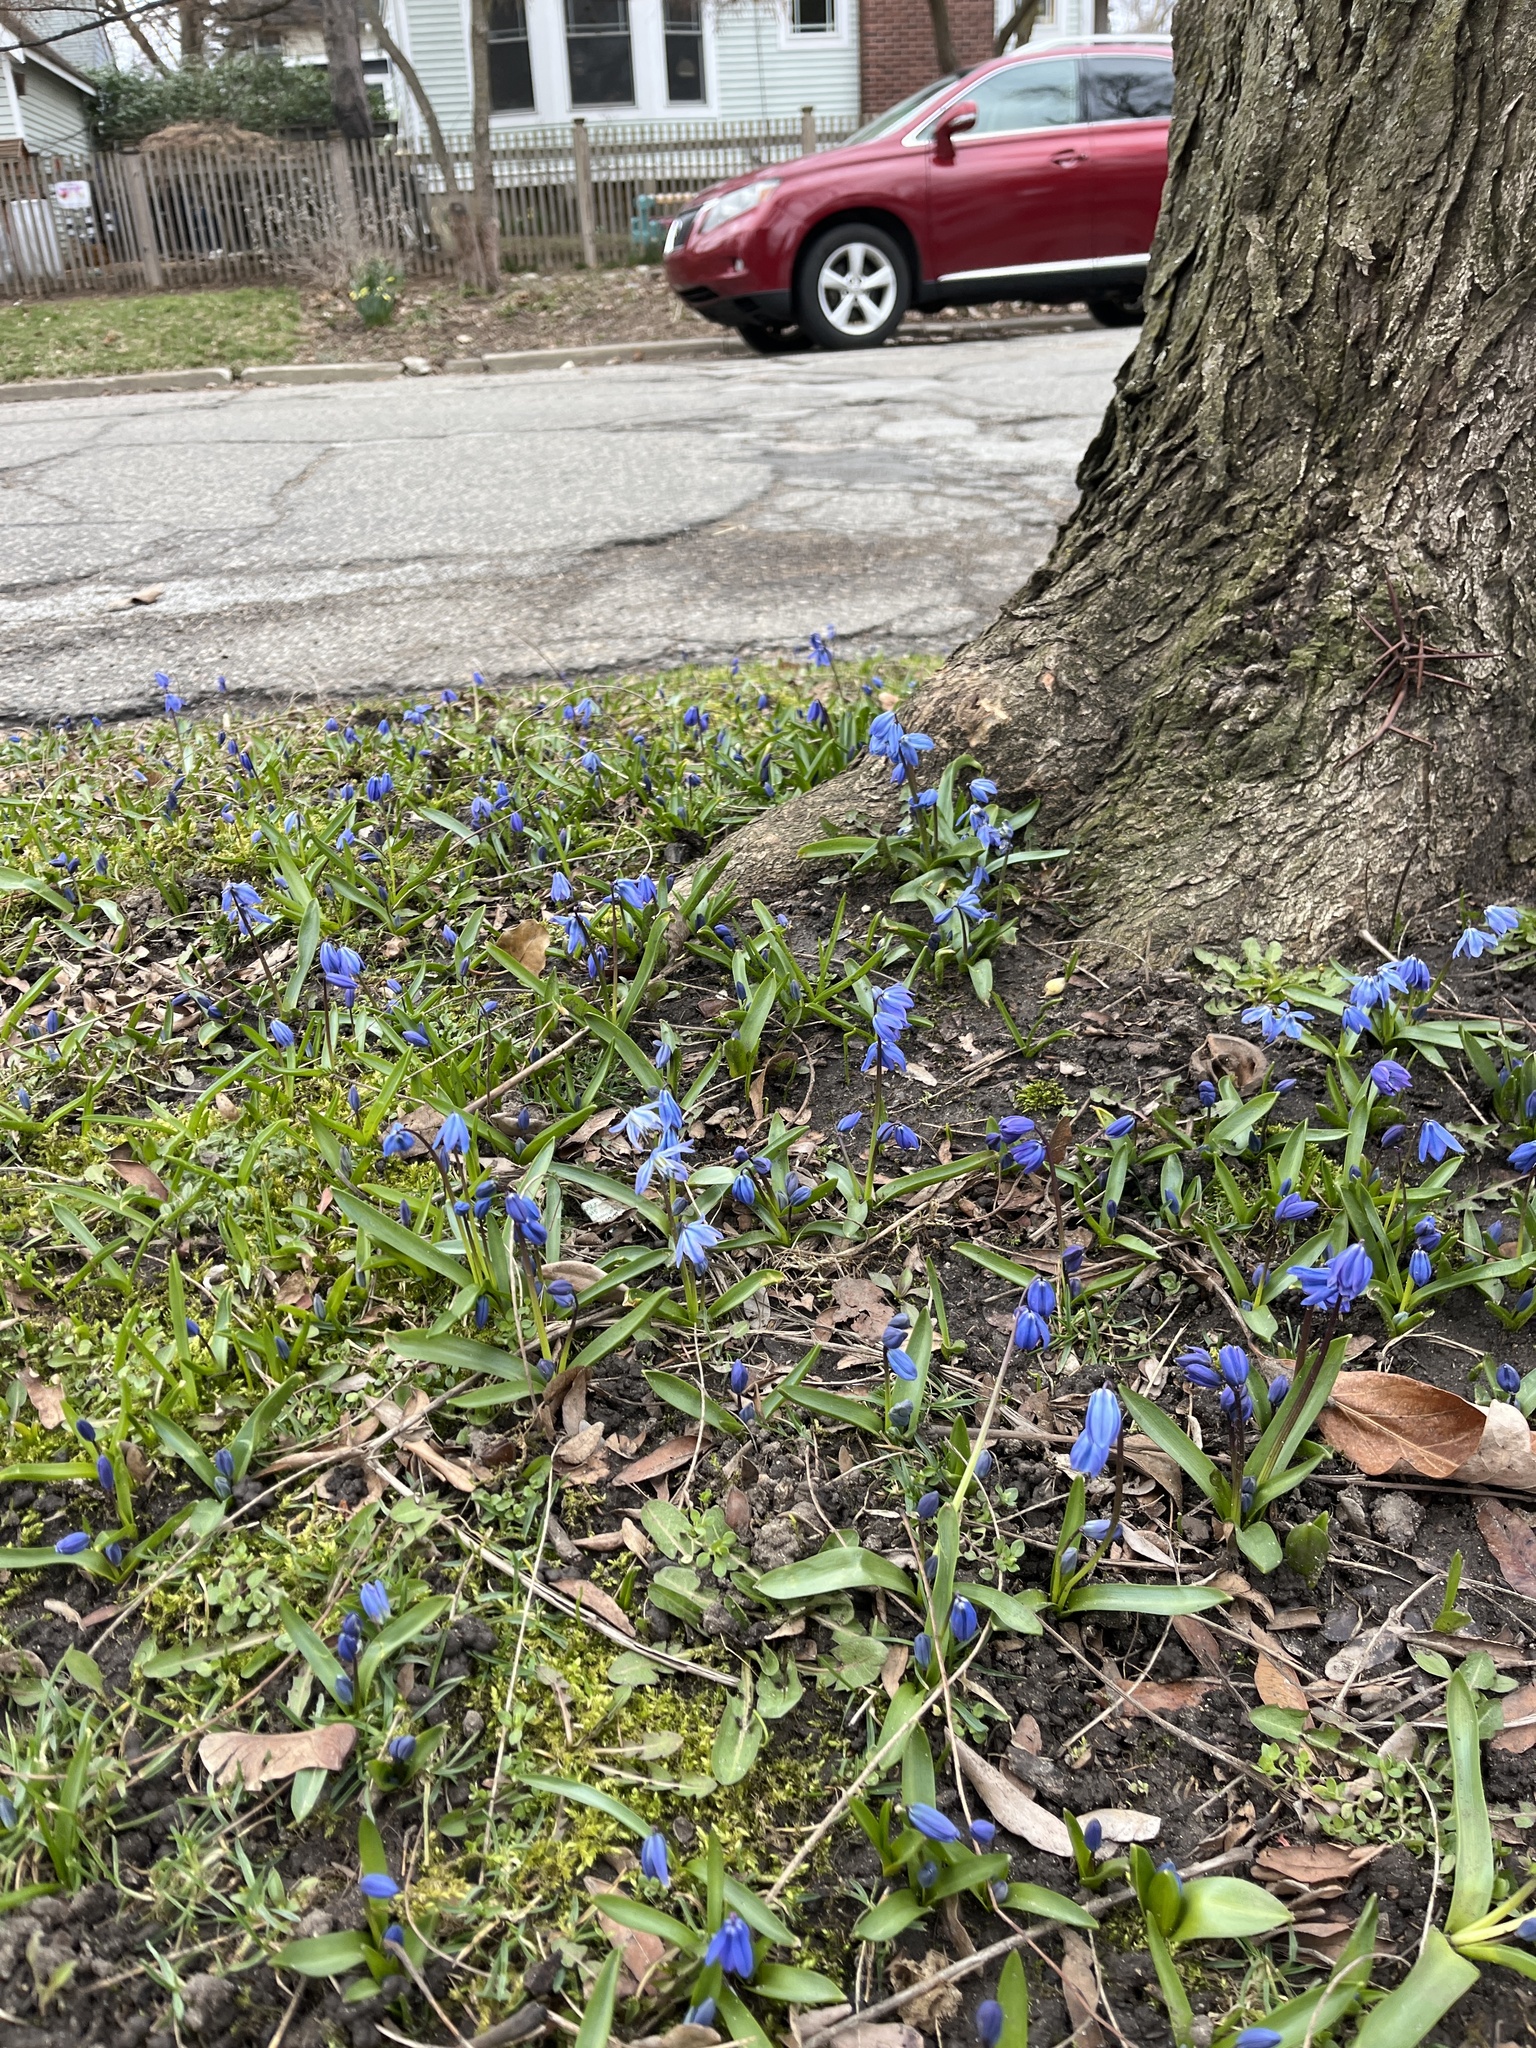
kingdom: Plantae
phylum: Tracheophyta
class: Liliopsida
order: Asparagales
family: Asparagaceae
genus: Scilla
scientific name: Scilla siberica
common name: Siberian squill
